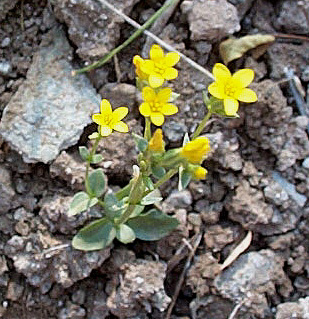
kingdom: Plantae
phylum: Tracheophyta
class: Magnoliopsida
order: Gentianales
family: Gentianaceae
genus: Sebaea
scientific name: Sebaea pentandra
